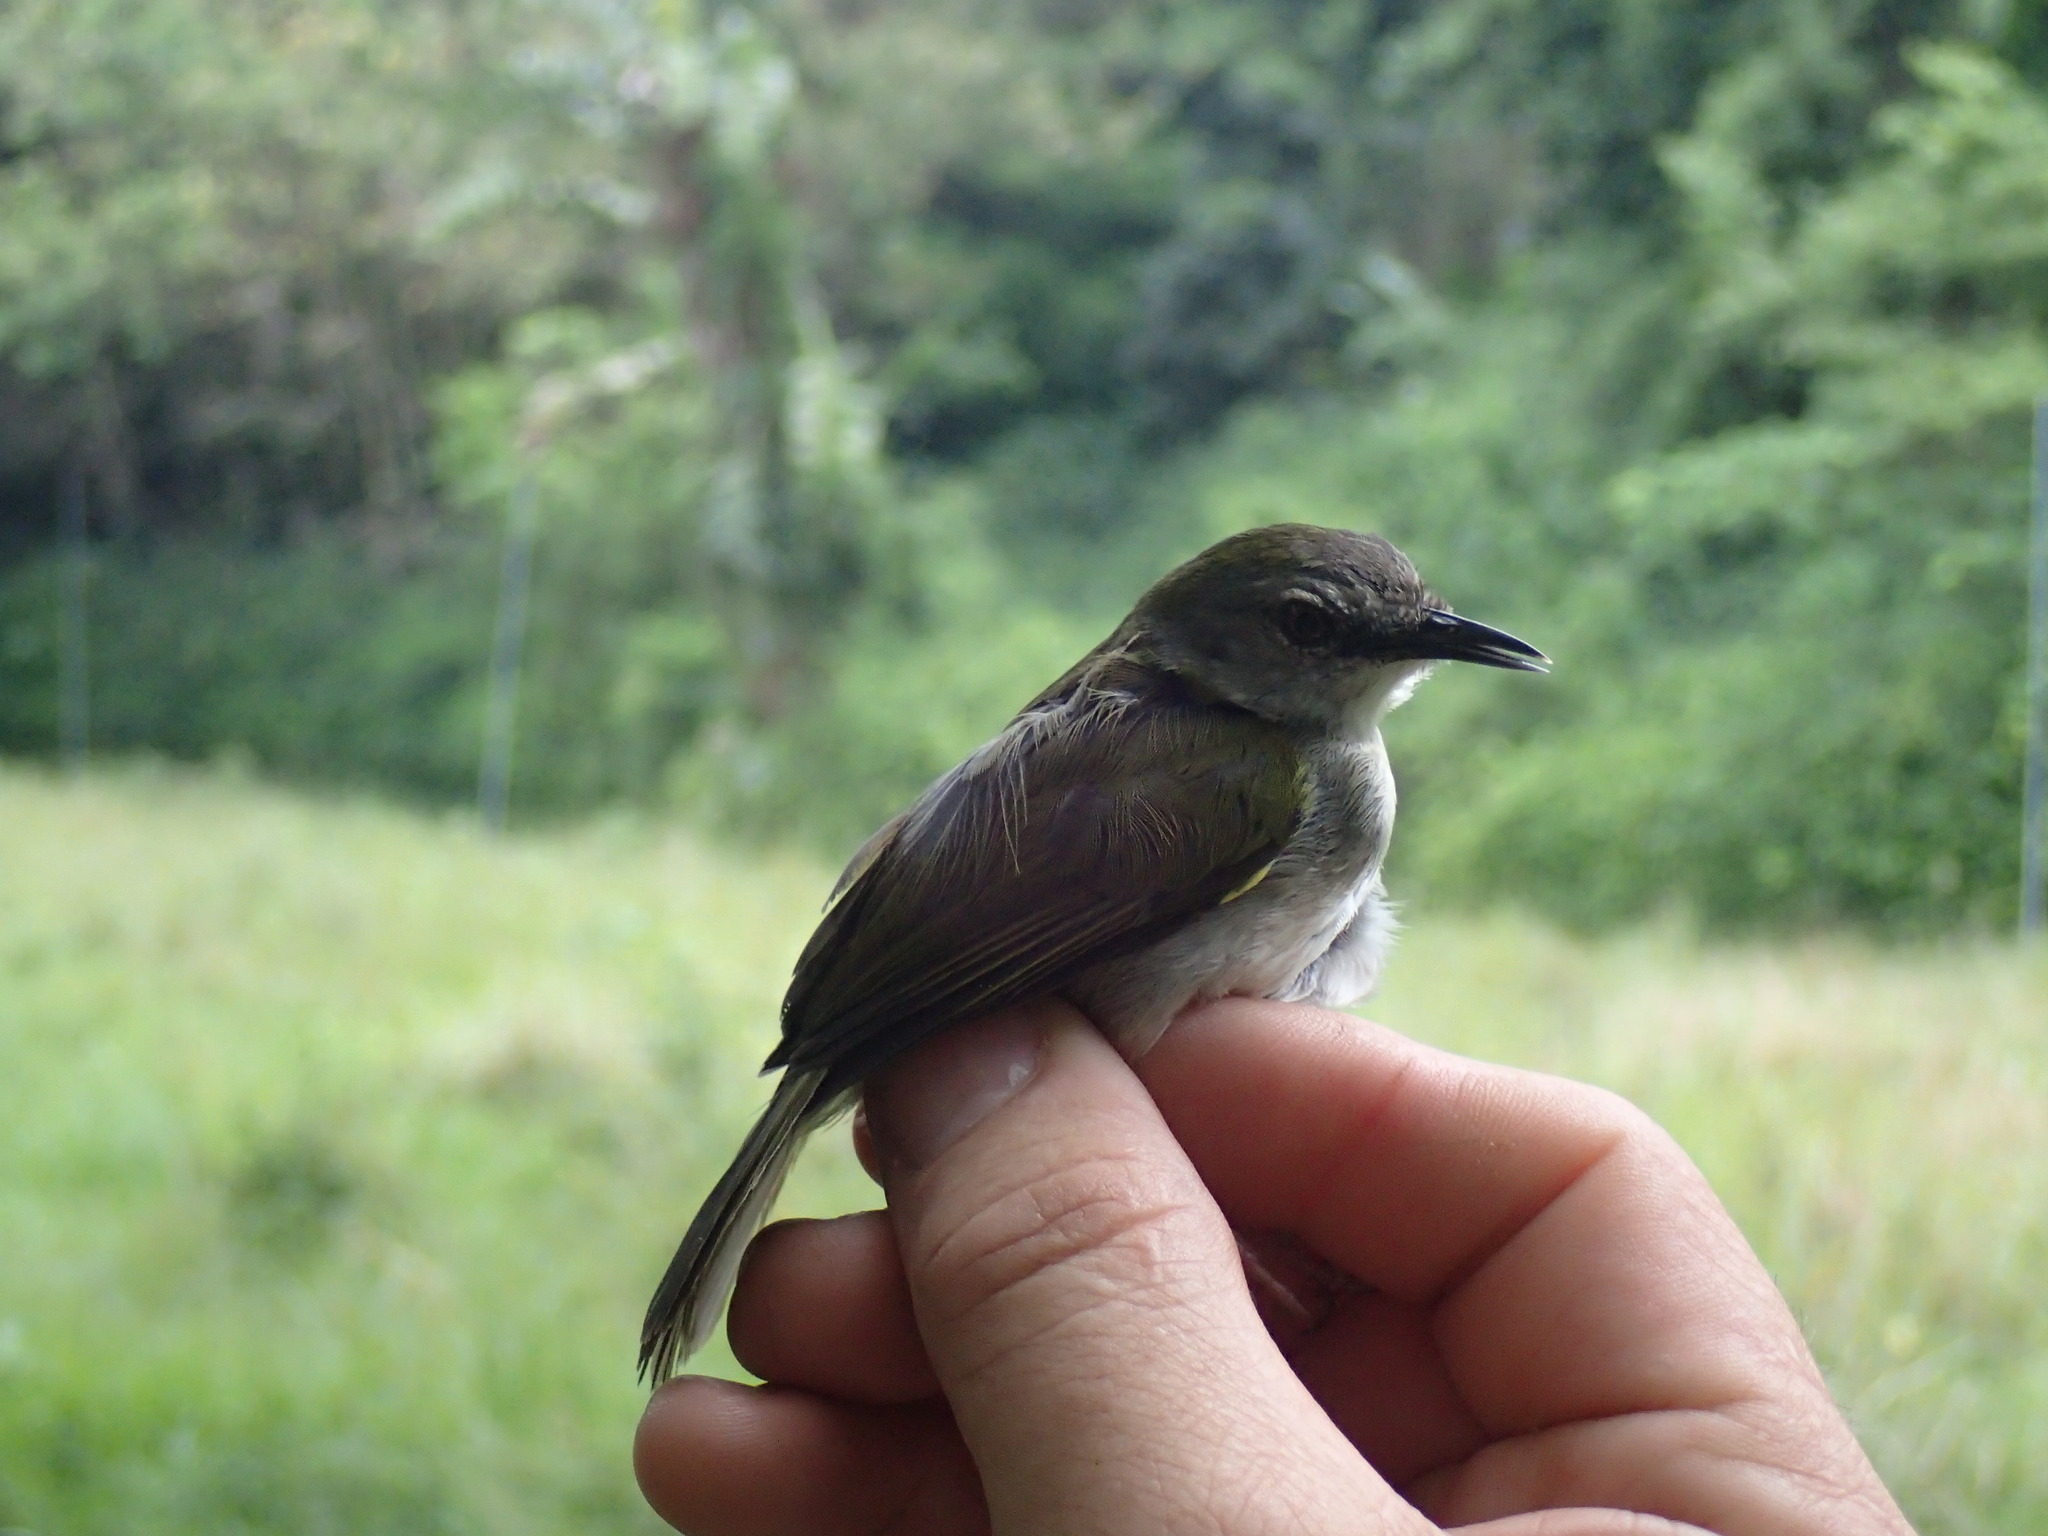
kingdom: Animalia
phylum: Chordata
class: Aves
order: Passeriformes
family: Cisticolidae
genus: Camaroptera
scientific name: Camaroptera brachyura
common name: Green-backed camaroptera
